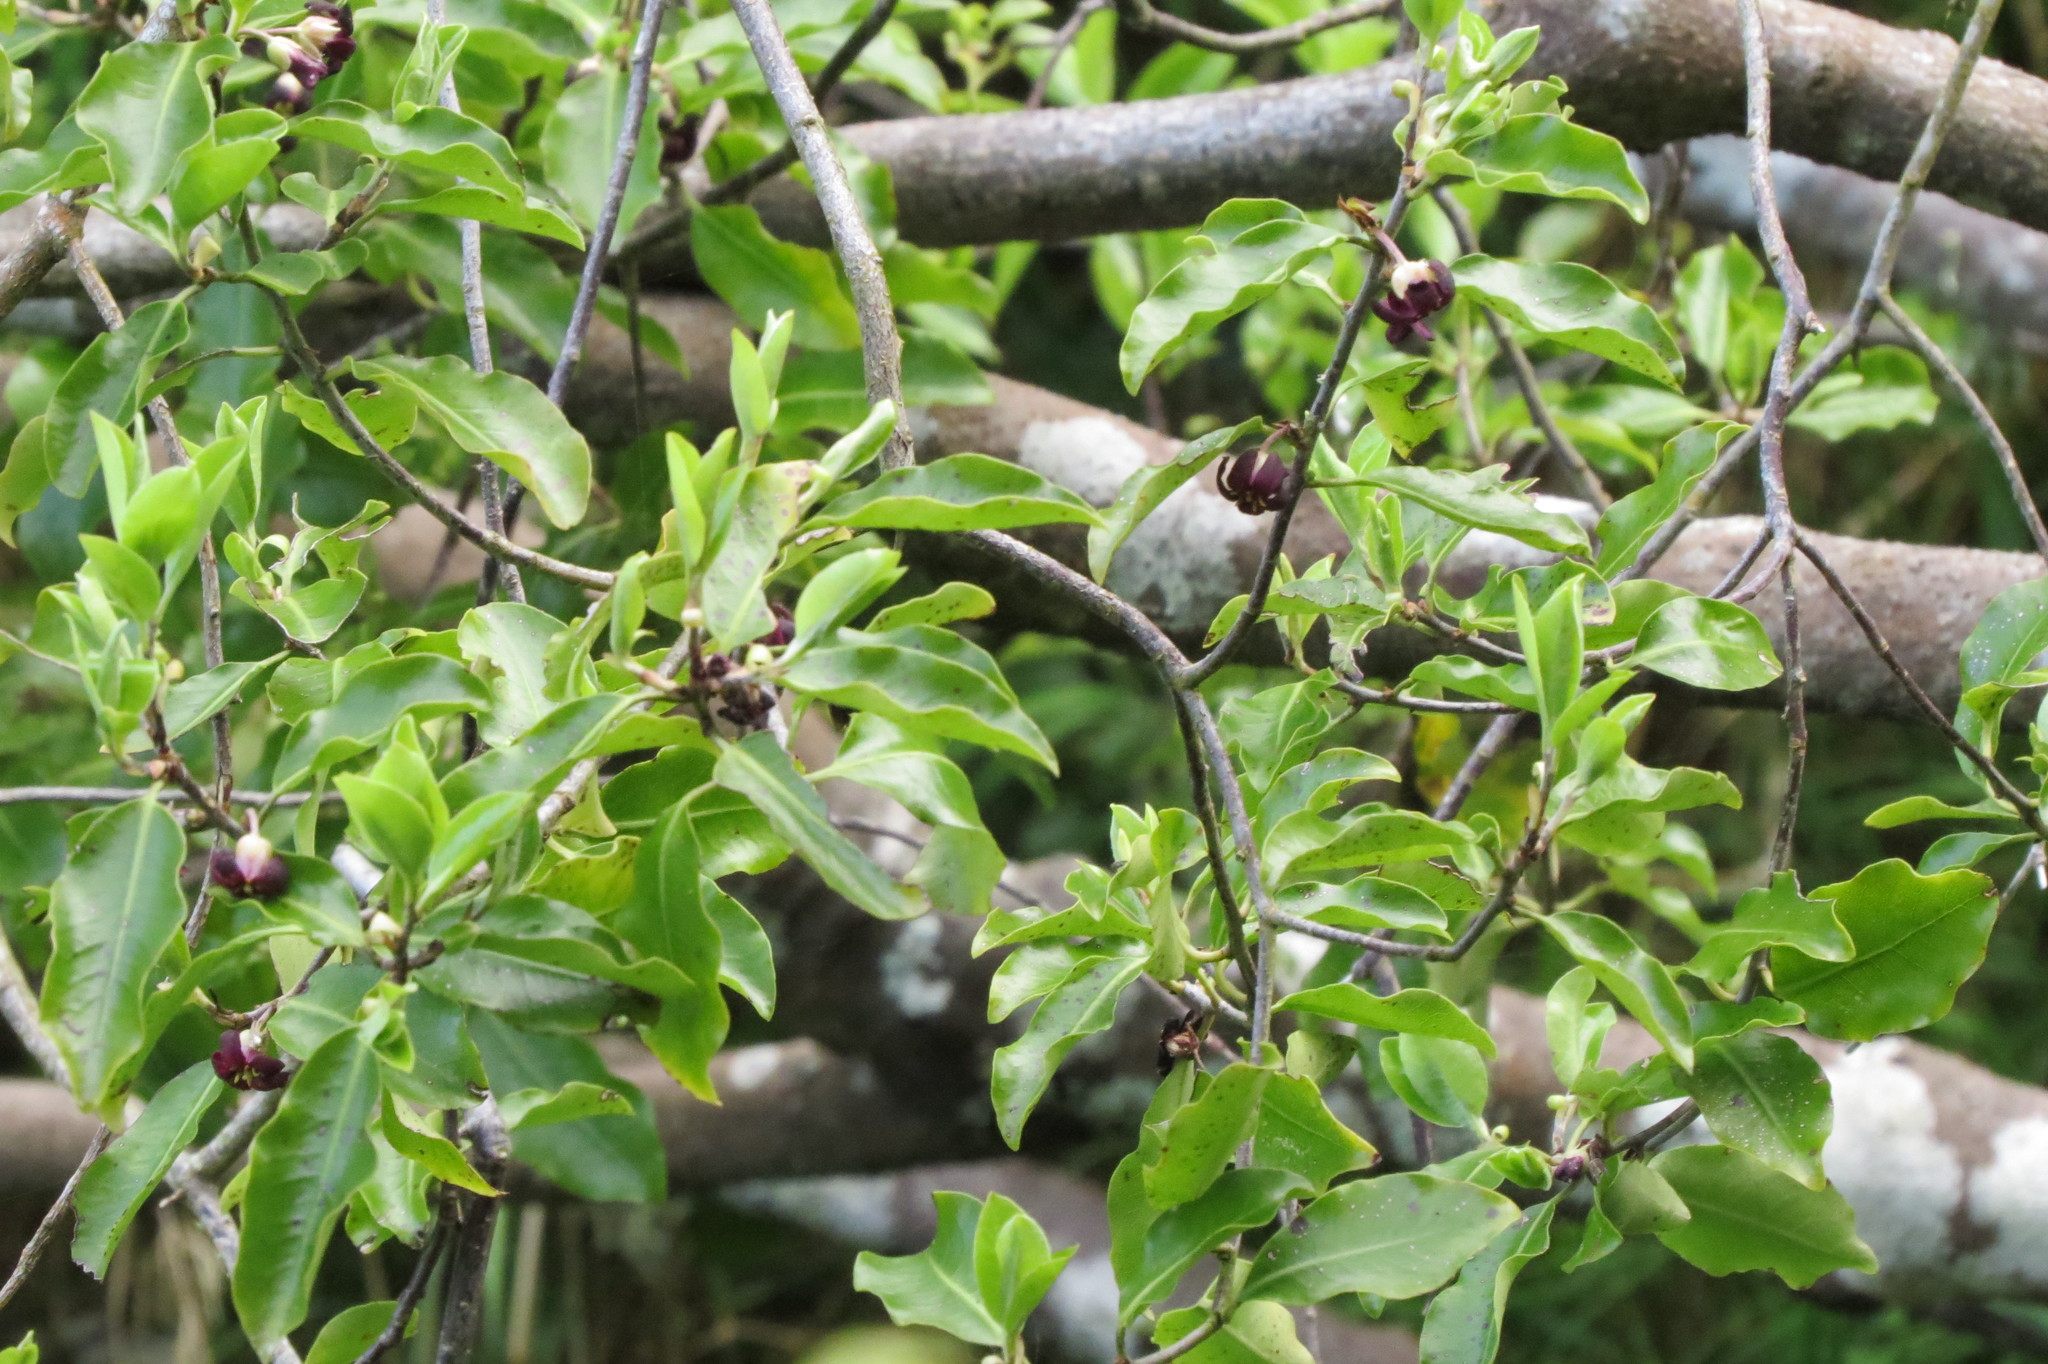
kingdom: Plantae
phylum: Tracheophyta
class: Magnoliopsida
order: Apiales
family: Pittosporaceae
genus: Pittosporum
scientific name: Pittosporum tenuifolium
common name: Kohuhu
